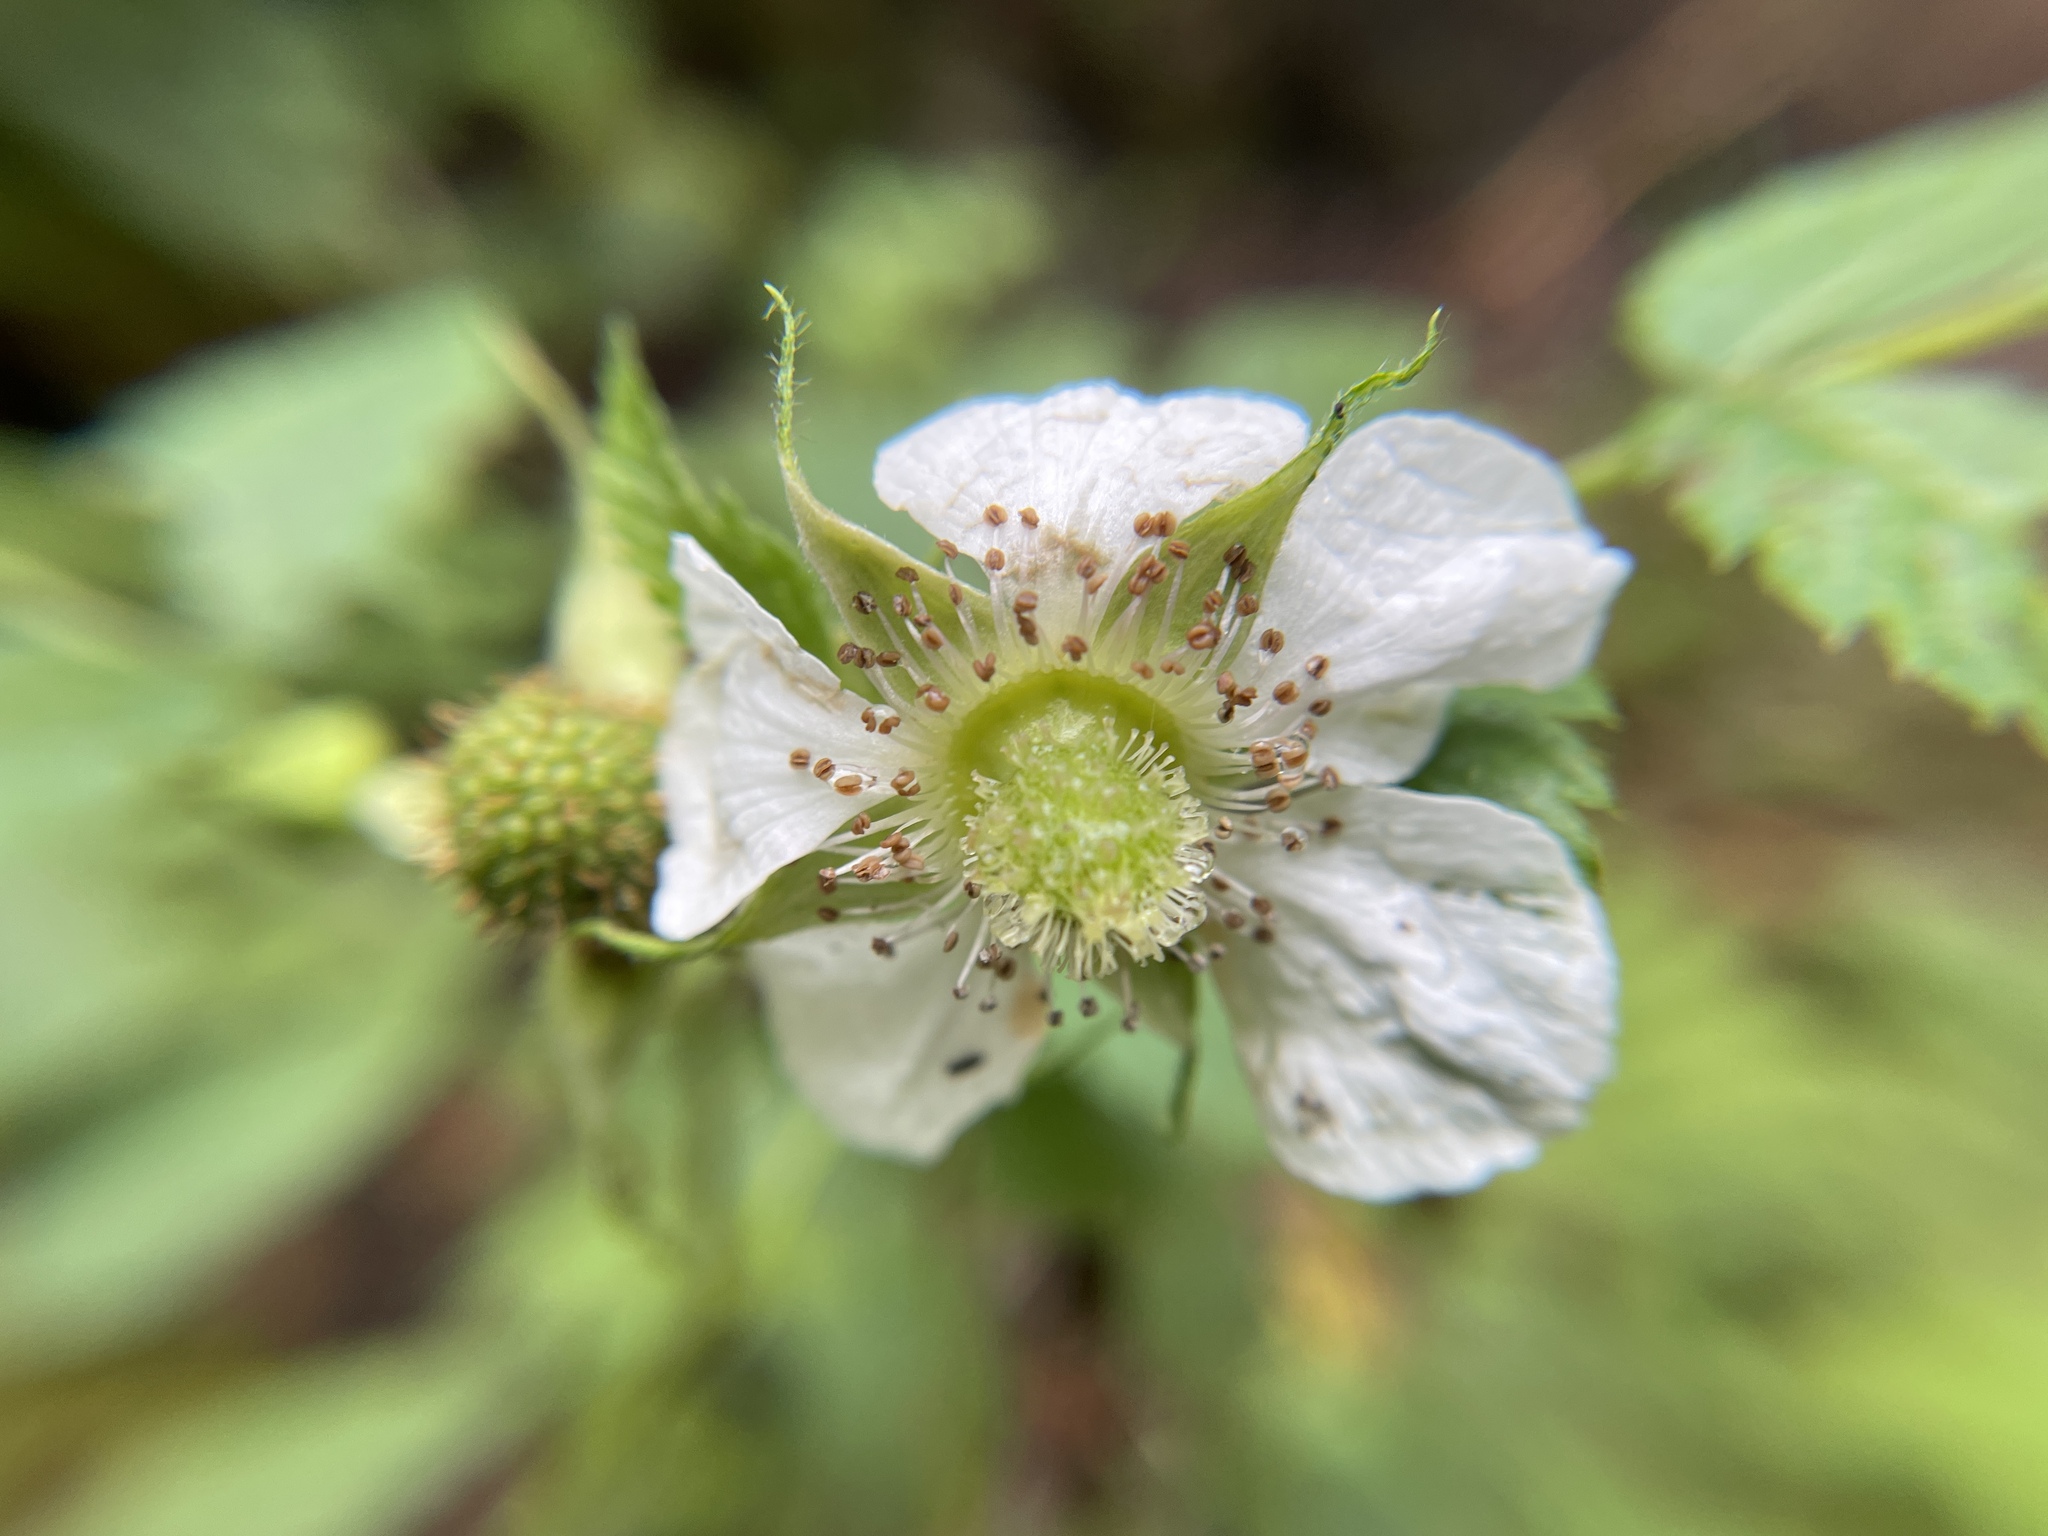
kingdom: Plantae
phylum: Tracheophyta
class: Magnoliopsida
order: Rosales
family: Rosaceae
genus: Rubus
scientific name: Rubus rosifolius
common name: Roseleaf raspberry
